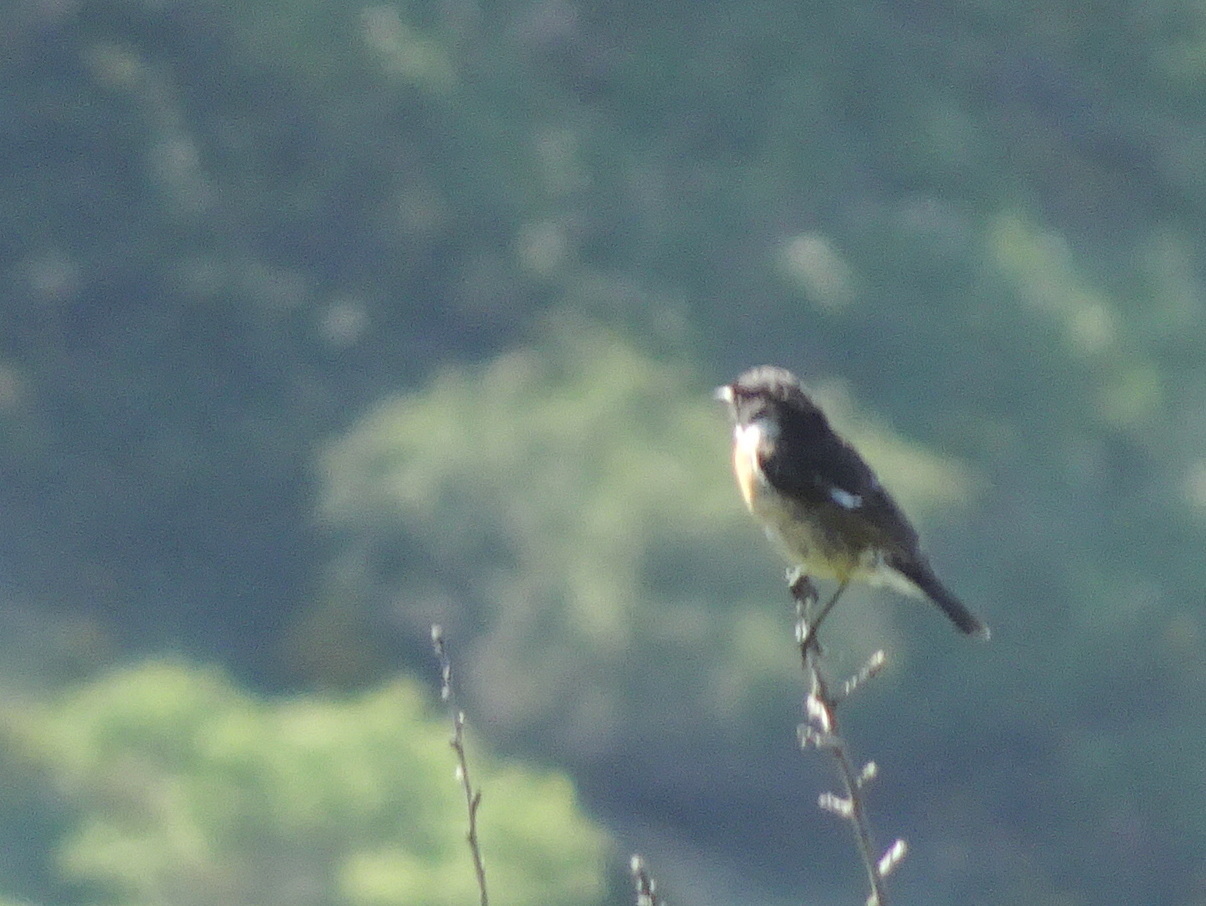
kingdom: Animalia
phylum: Chordata
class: Aves
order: Passeriformes
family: Muscicapidae
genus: Saxicola
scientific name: Saxicola rubicola
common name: European stonechat
